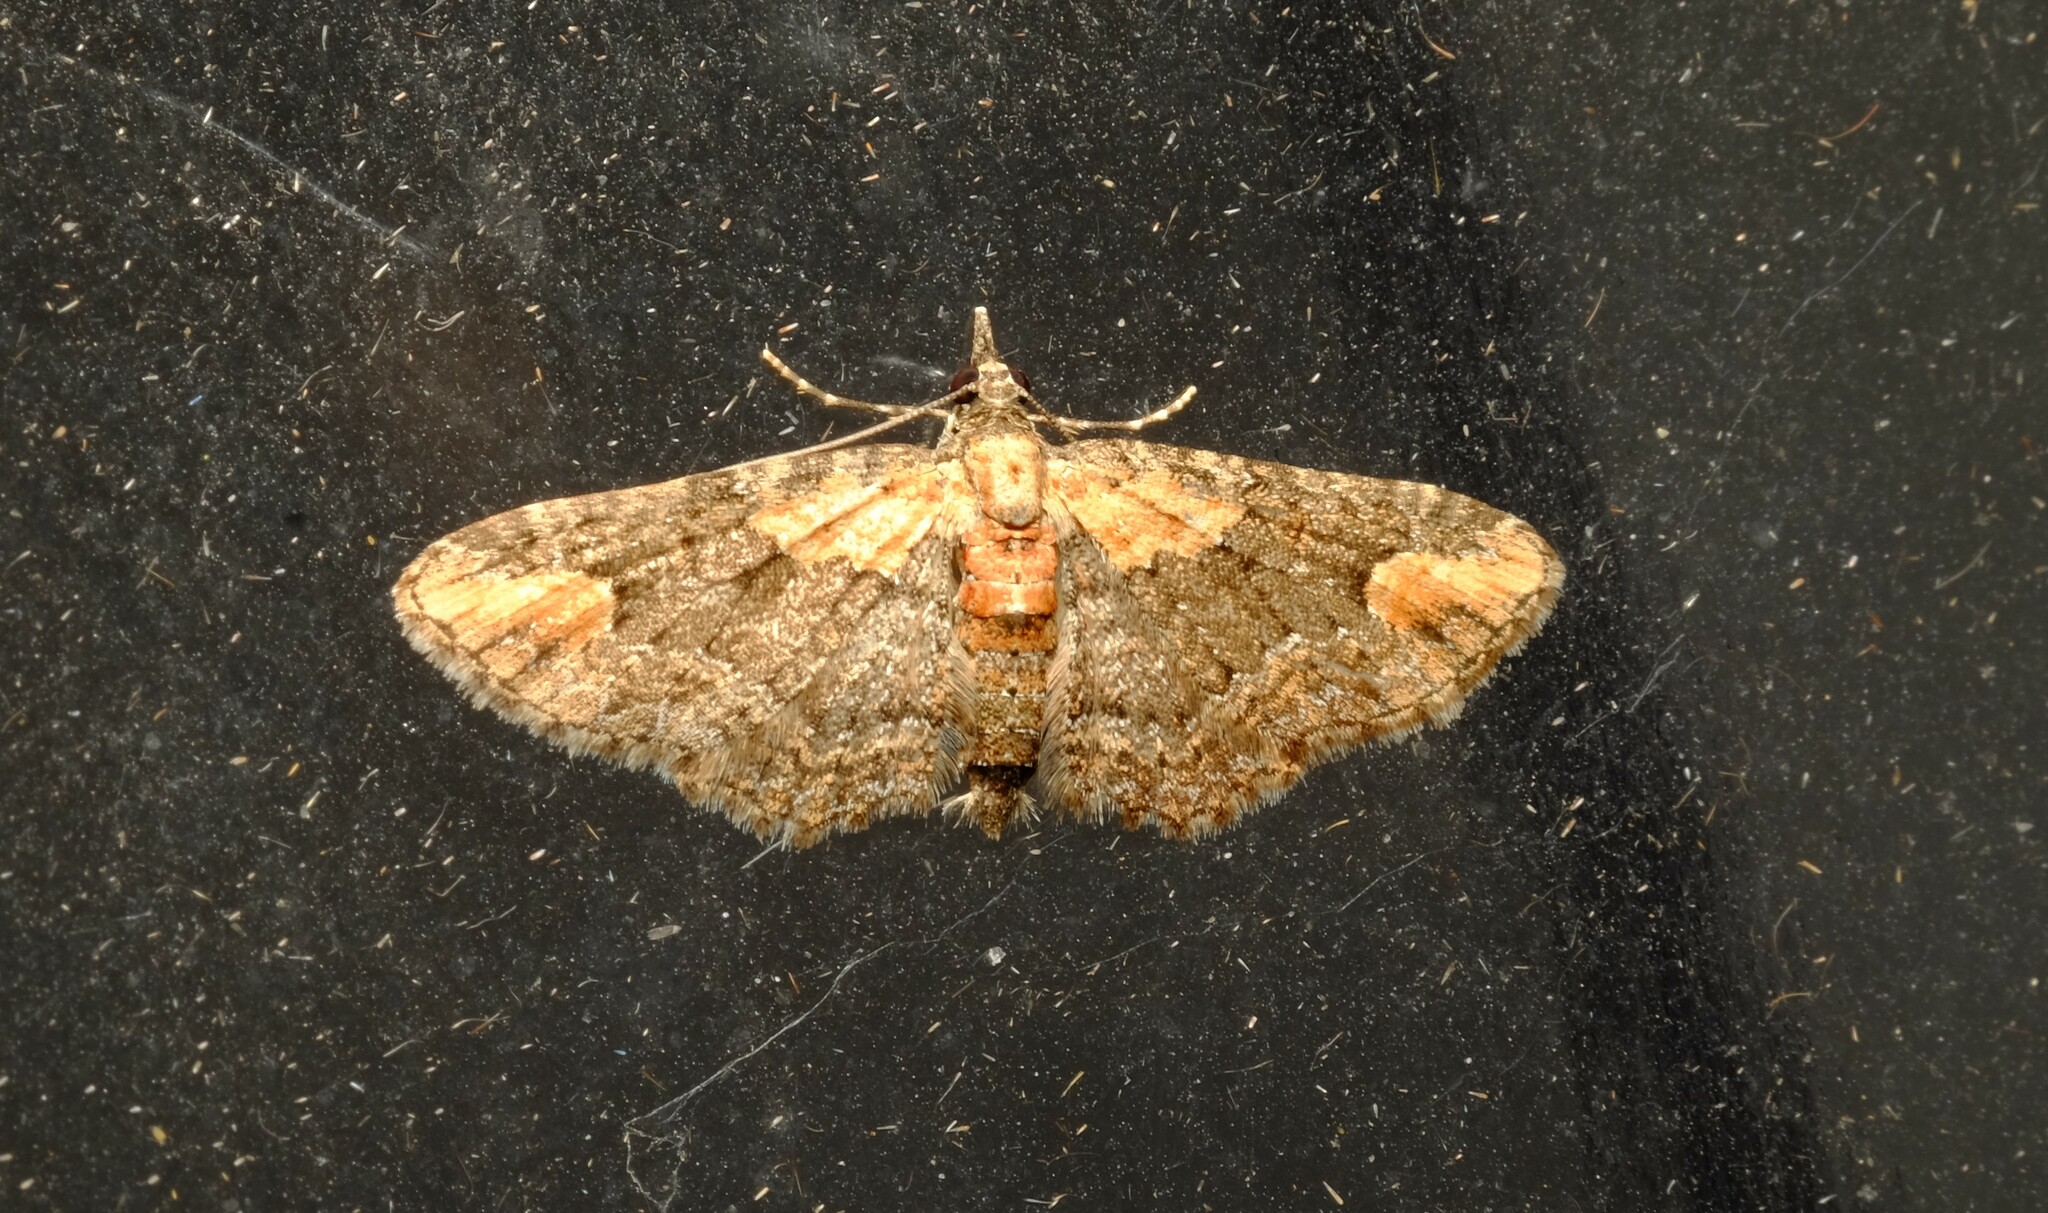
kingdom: Animalia
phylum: Arthropoda
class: Insecta
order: Lepidoptera
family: Geometridae
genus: Pasiphilodes
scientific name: Pasiphilodes testulata
